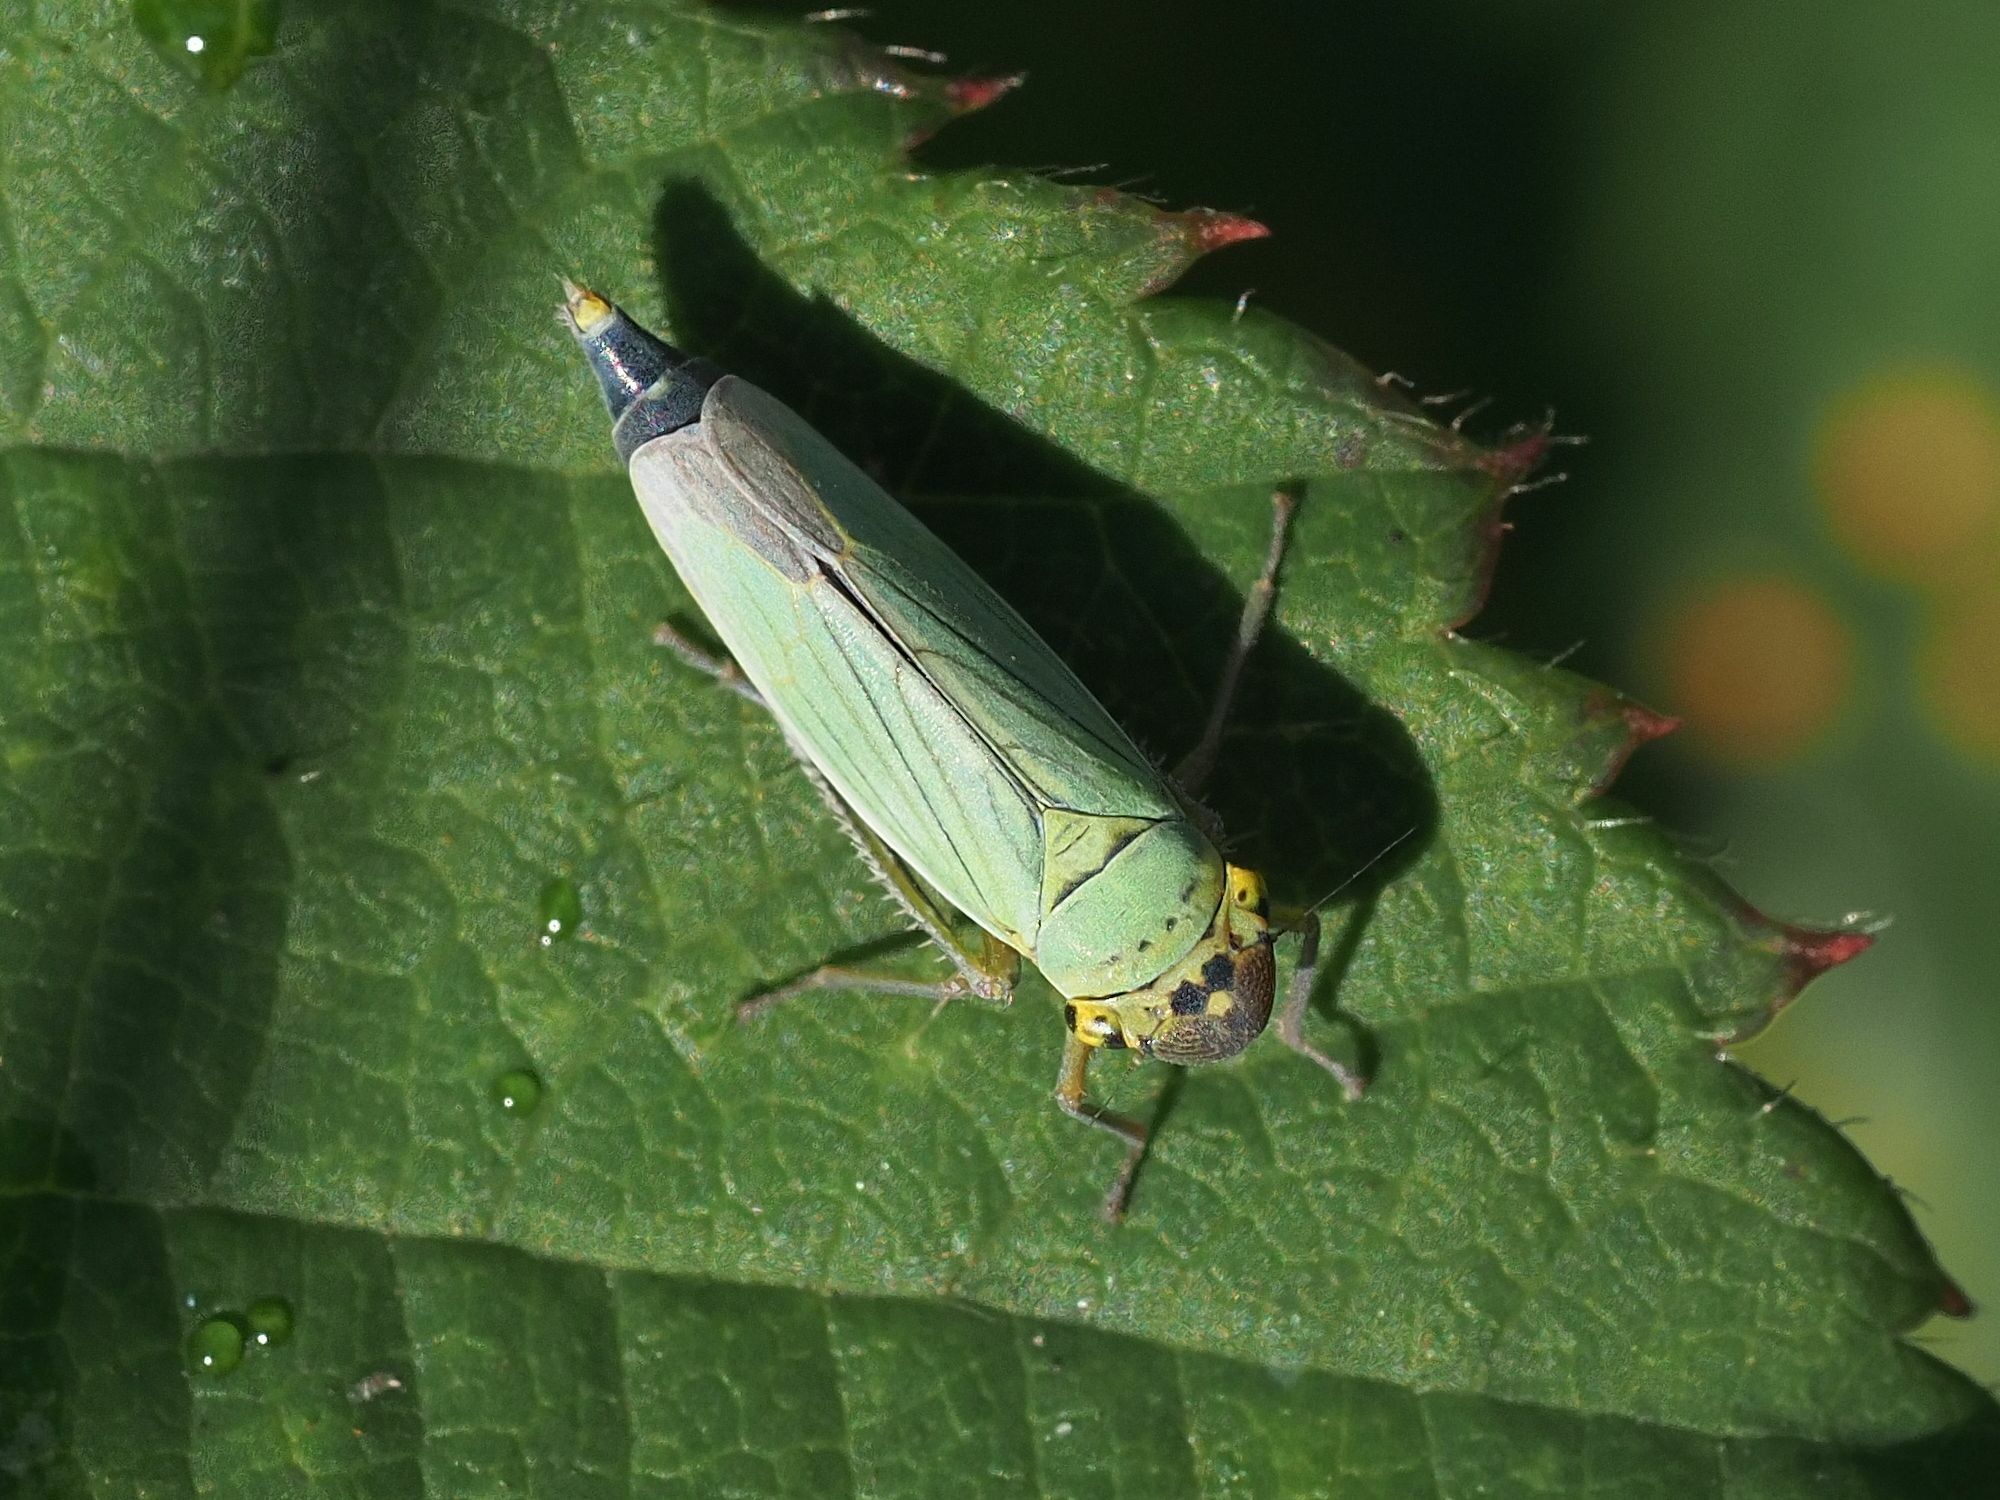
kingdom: Animalia
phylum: Arthropoda
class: Insecta
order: Hemiptera
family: Cicadellidae
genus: Cicadella
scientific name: Cicadella viridis
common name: Leafhopper
